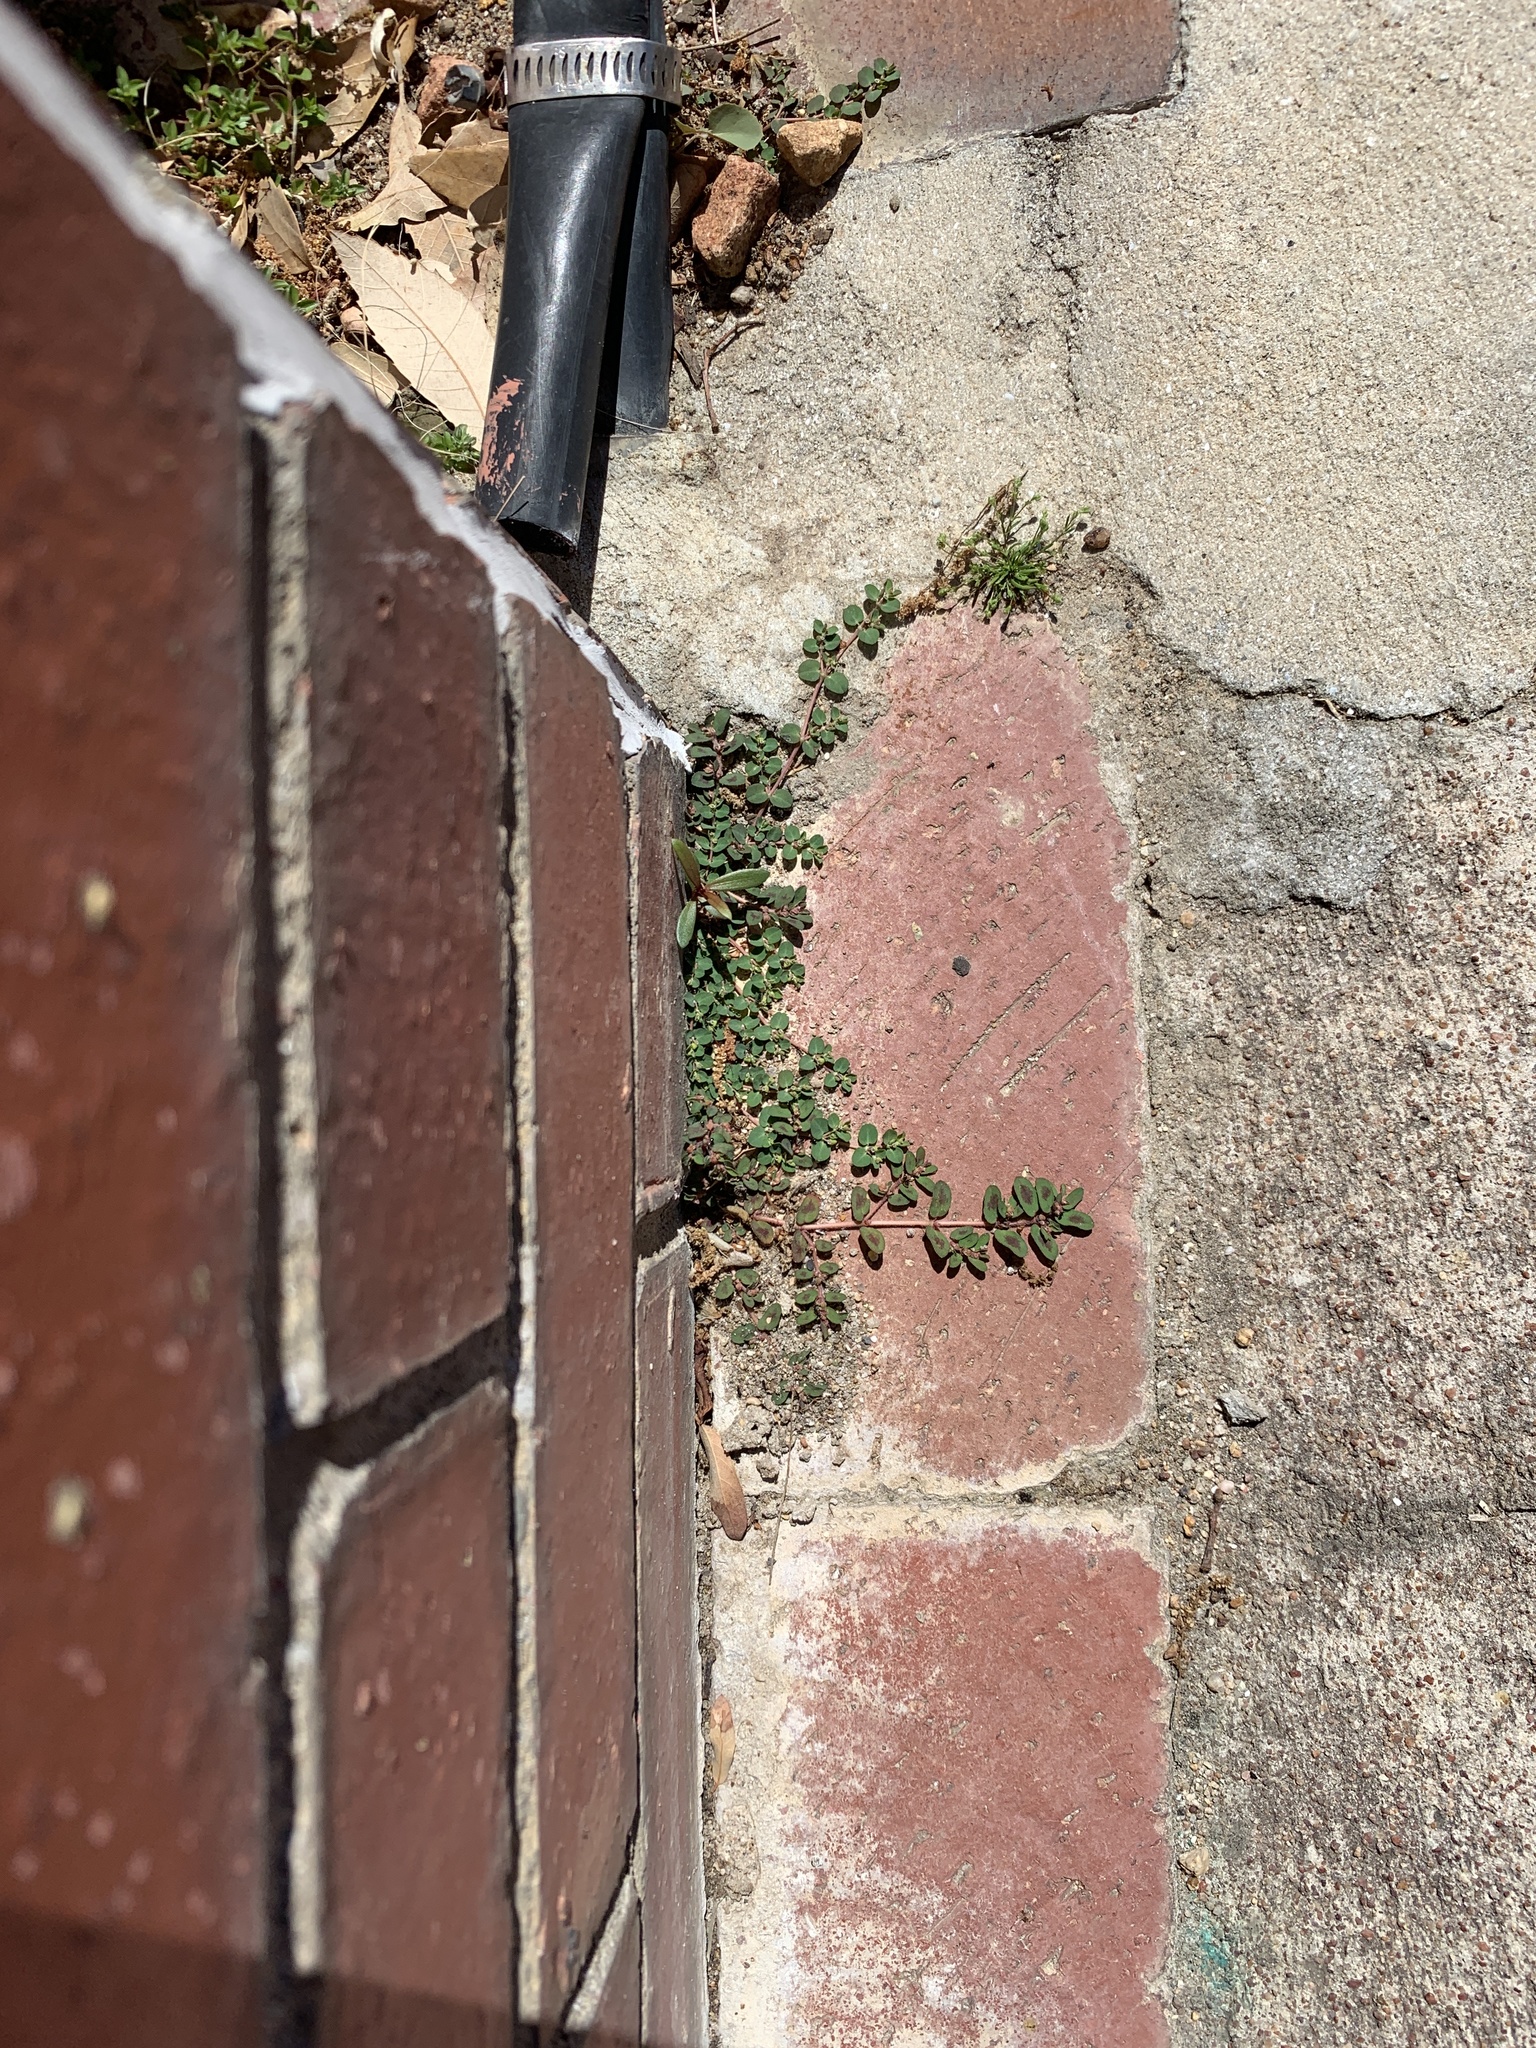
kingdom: Plantae
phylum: Tracheophyta
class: Magnoliopsida
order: Malpighiales
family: Euphorbiaceae
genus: Euphorbia
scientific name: Euphorbia serpens
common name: Matted sandmat
